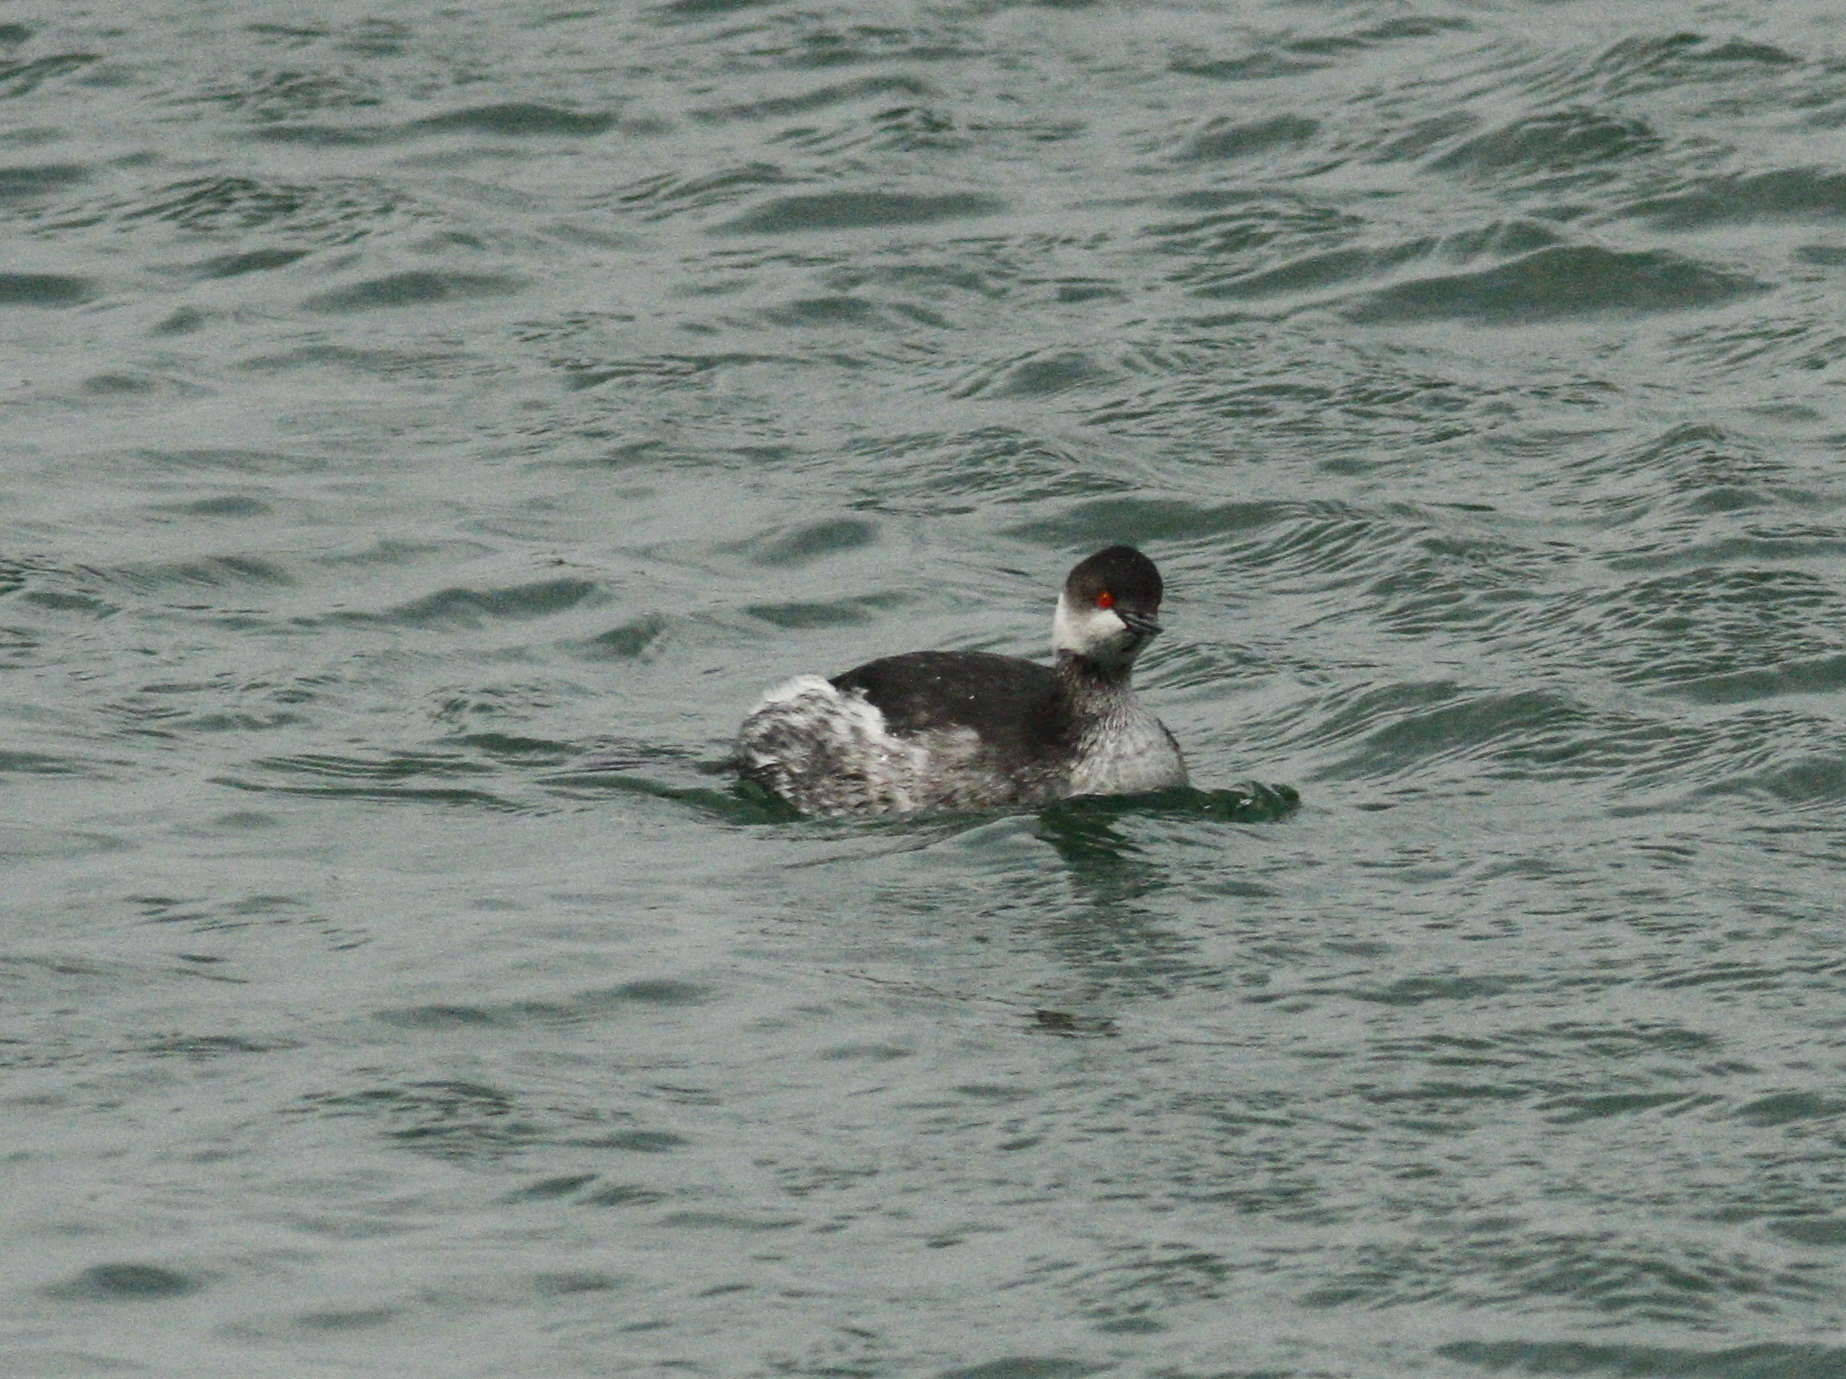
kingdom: Animalia
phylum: Chordata
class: Aves
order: Podicipediformes
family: Podicipedidae
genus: Podiceps
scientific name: Podiceps nigricollis
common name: Black-necked grebe
